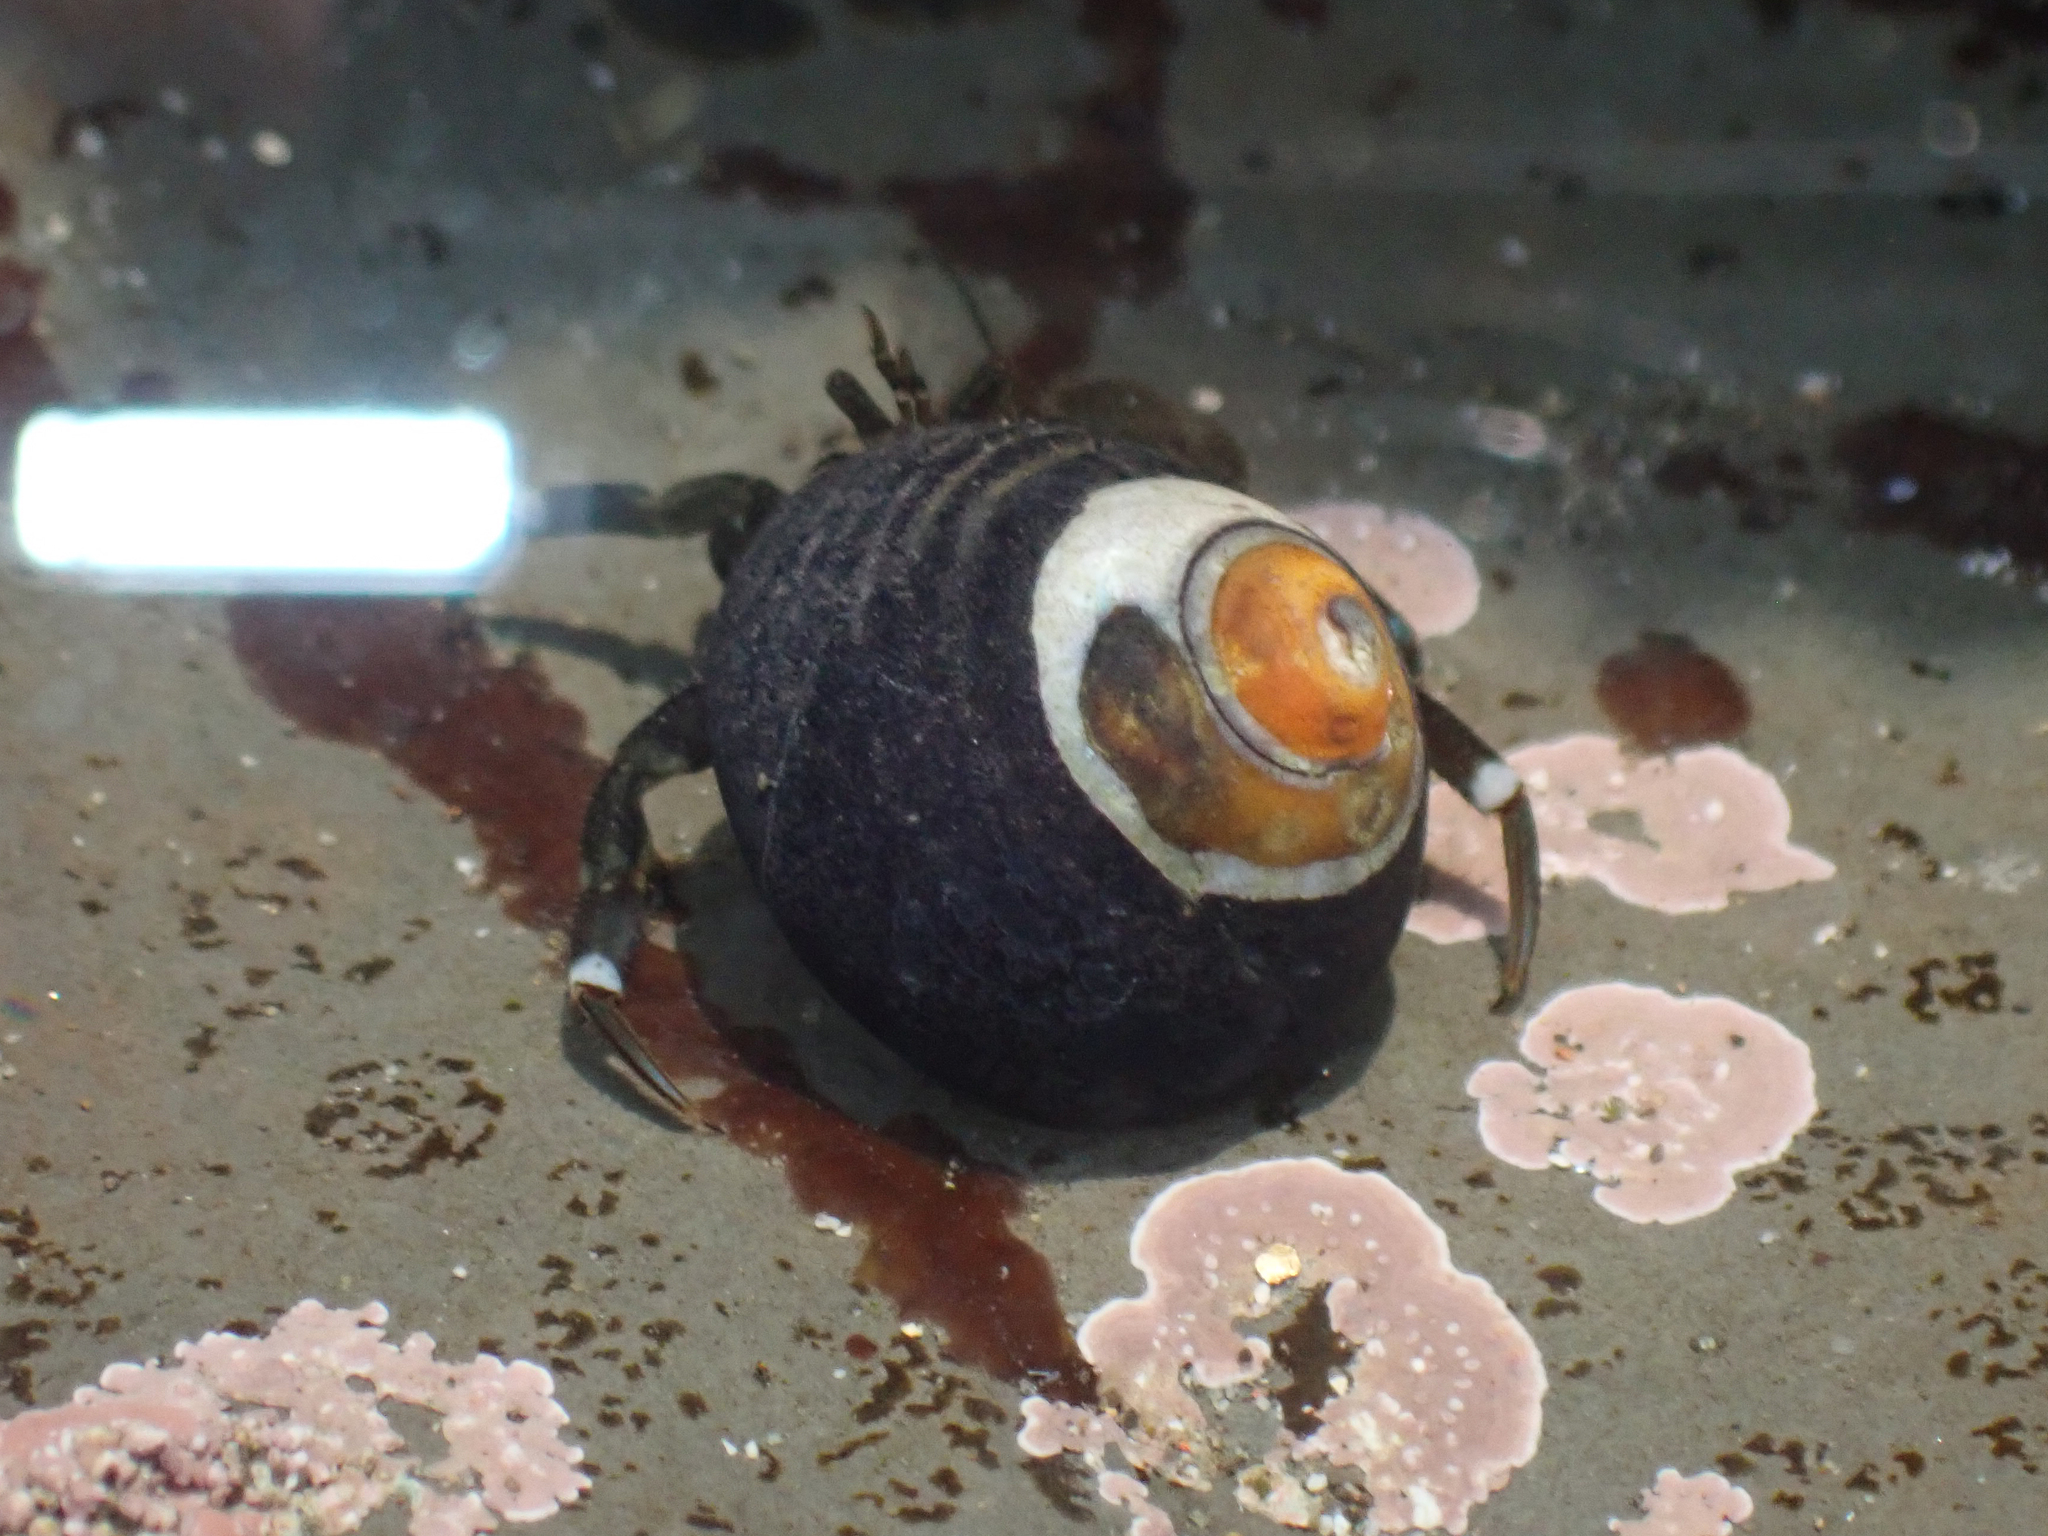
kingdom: Animalia
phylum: Arthropoda
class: Malacostraca
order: Decapoda
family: Paguridae
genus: Pagurus
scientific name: Pagurus hirsutiusculus
